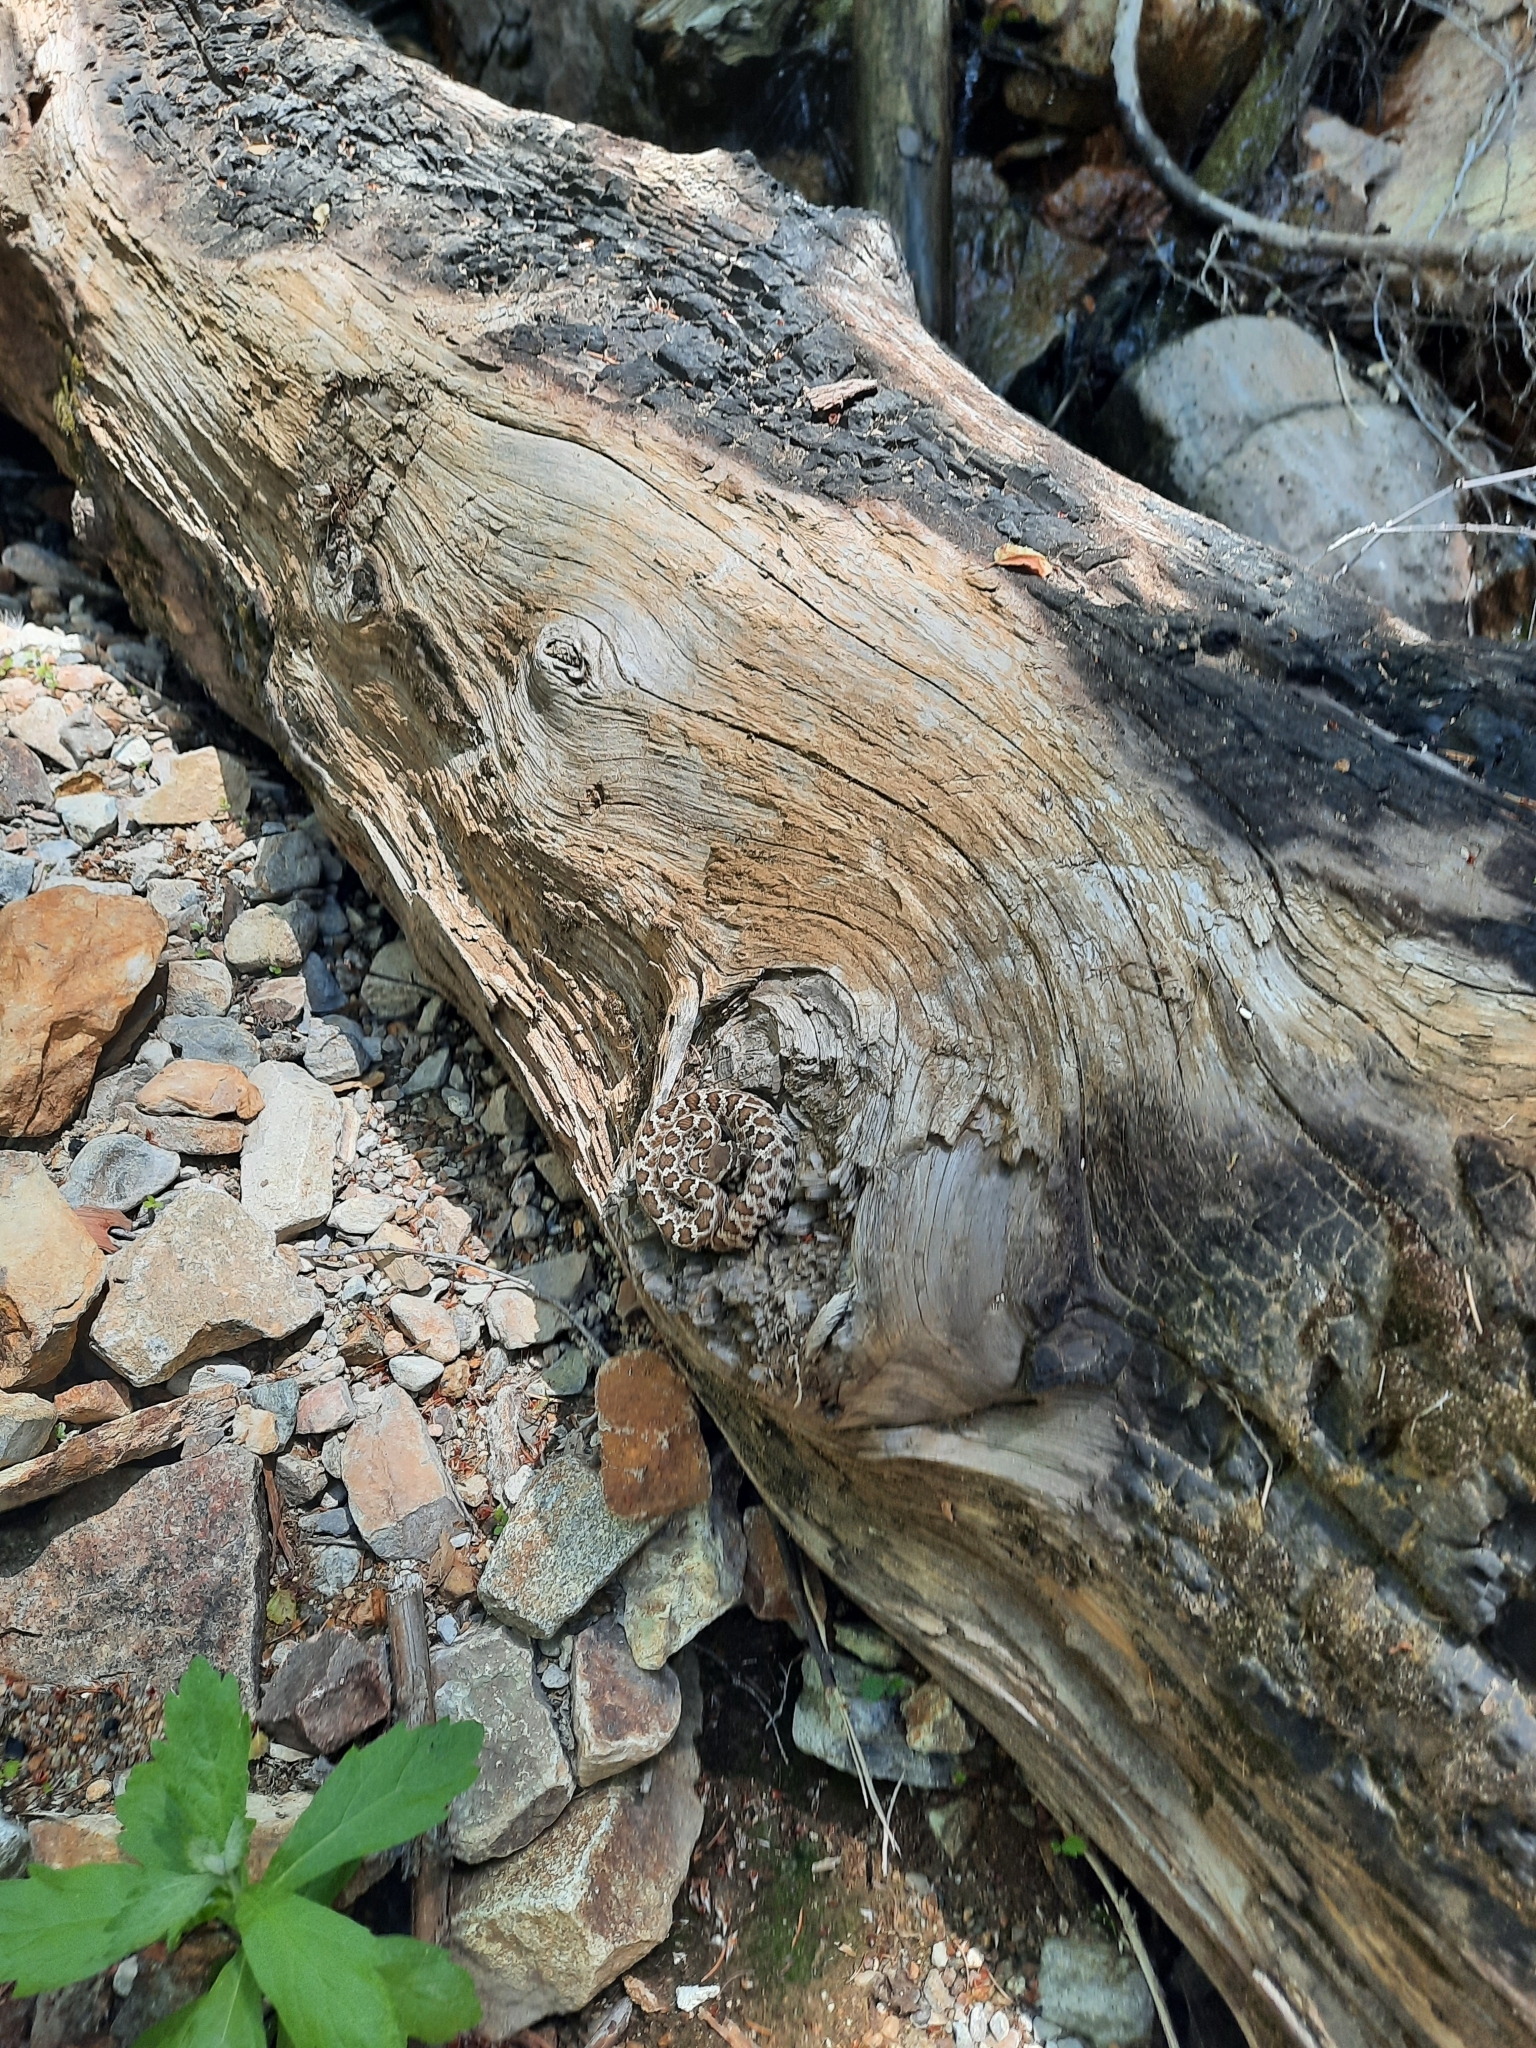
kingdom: Animalia
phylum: Chordata
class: Squamata
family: Viperidae
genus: Crotalus
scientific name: Crotalus oreganus
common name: Abyssus
